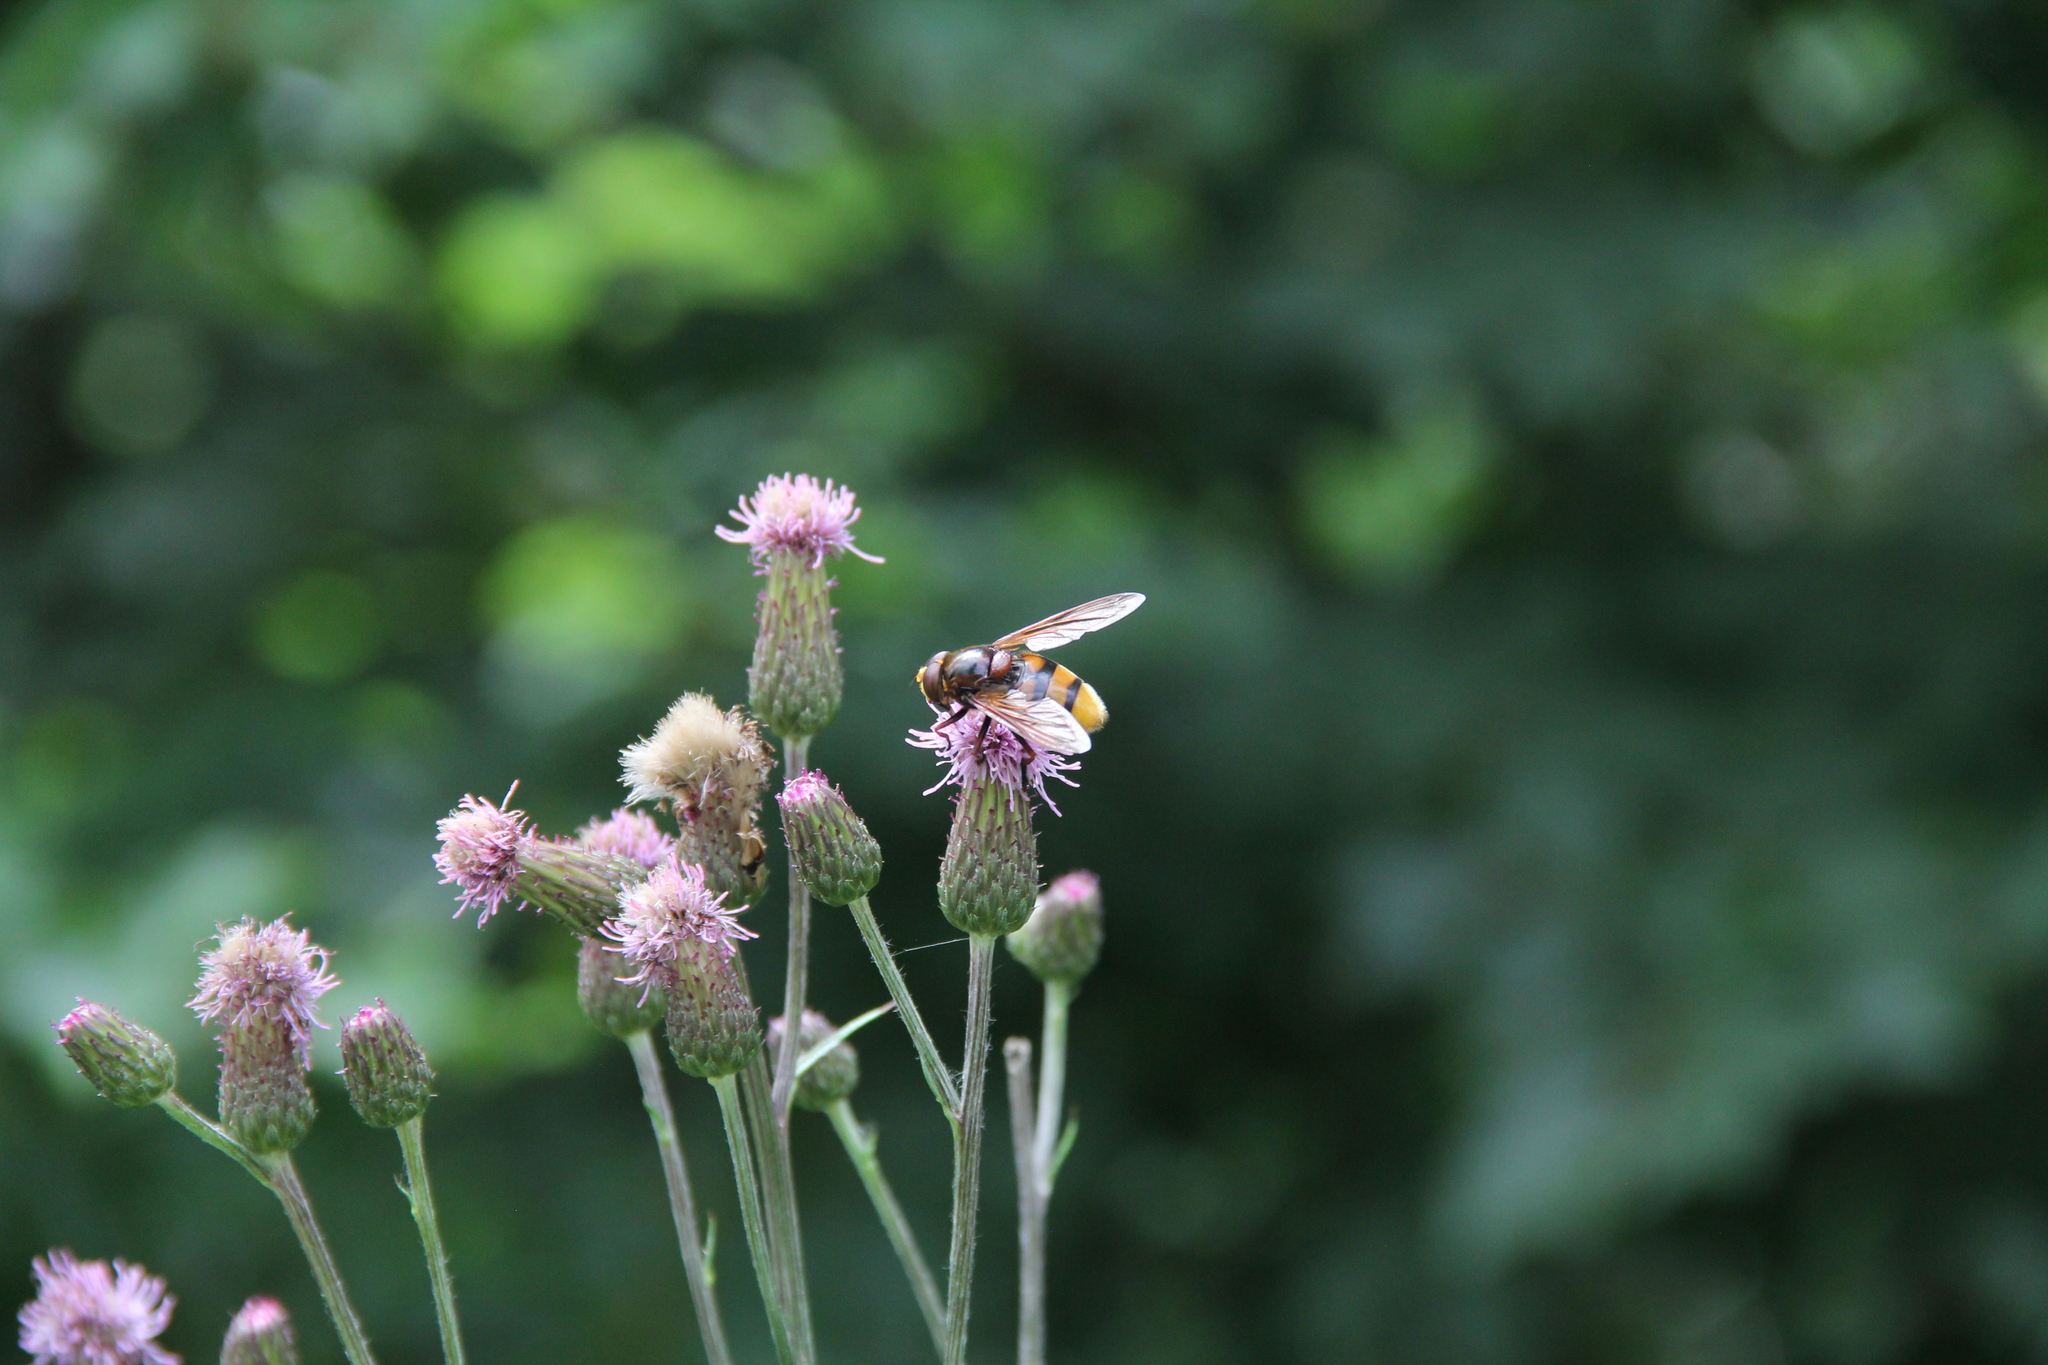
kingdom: Animalia
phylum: Arthropoda
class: Insecta
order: Diptera
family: Syrphidae
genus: Volucella
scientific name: Volucella zonaria
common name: Hornet hoverfly
